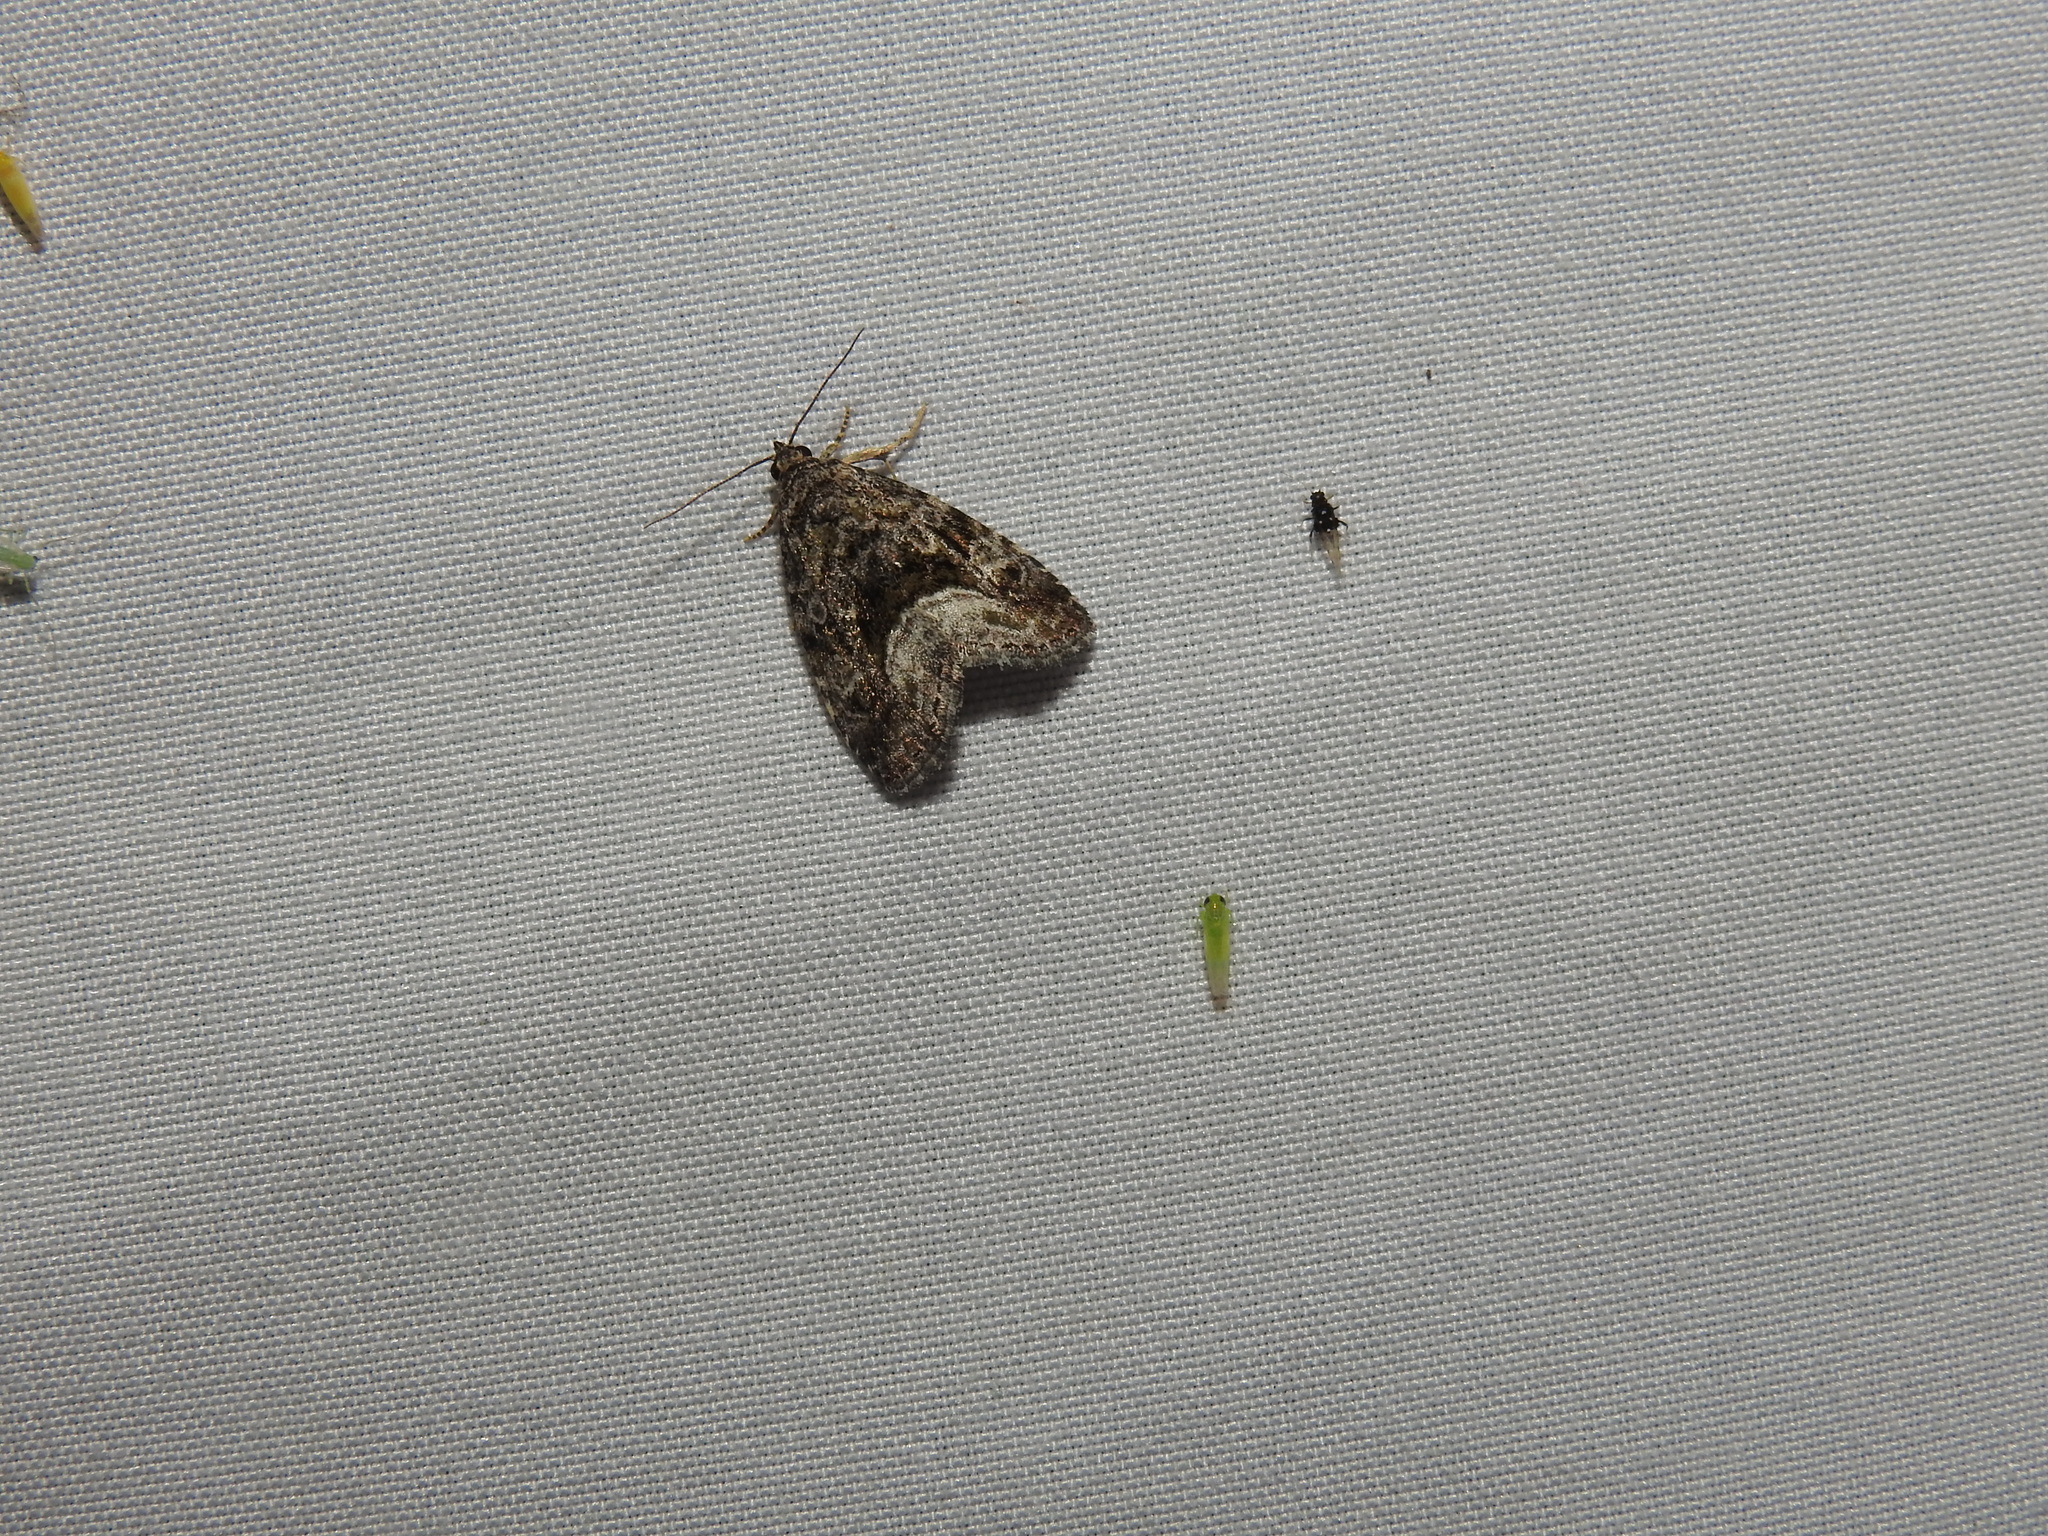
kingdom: Animalia
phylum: Arthropoda
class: Insecta
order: Lepidoptera
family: Noctuidae
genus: Protodeltote
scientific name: Protodeltote muscosula
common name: Large mossy glyph
